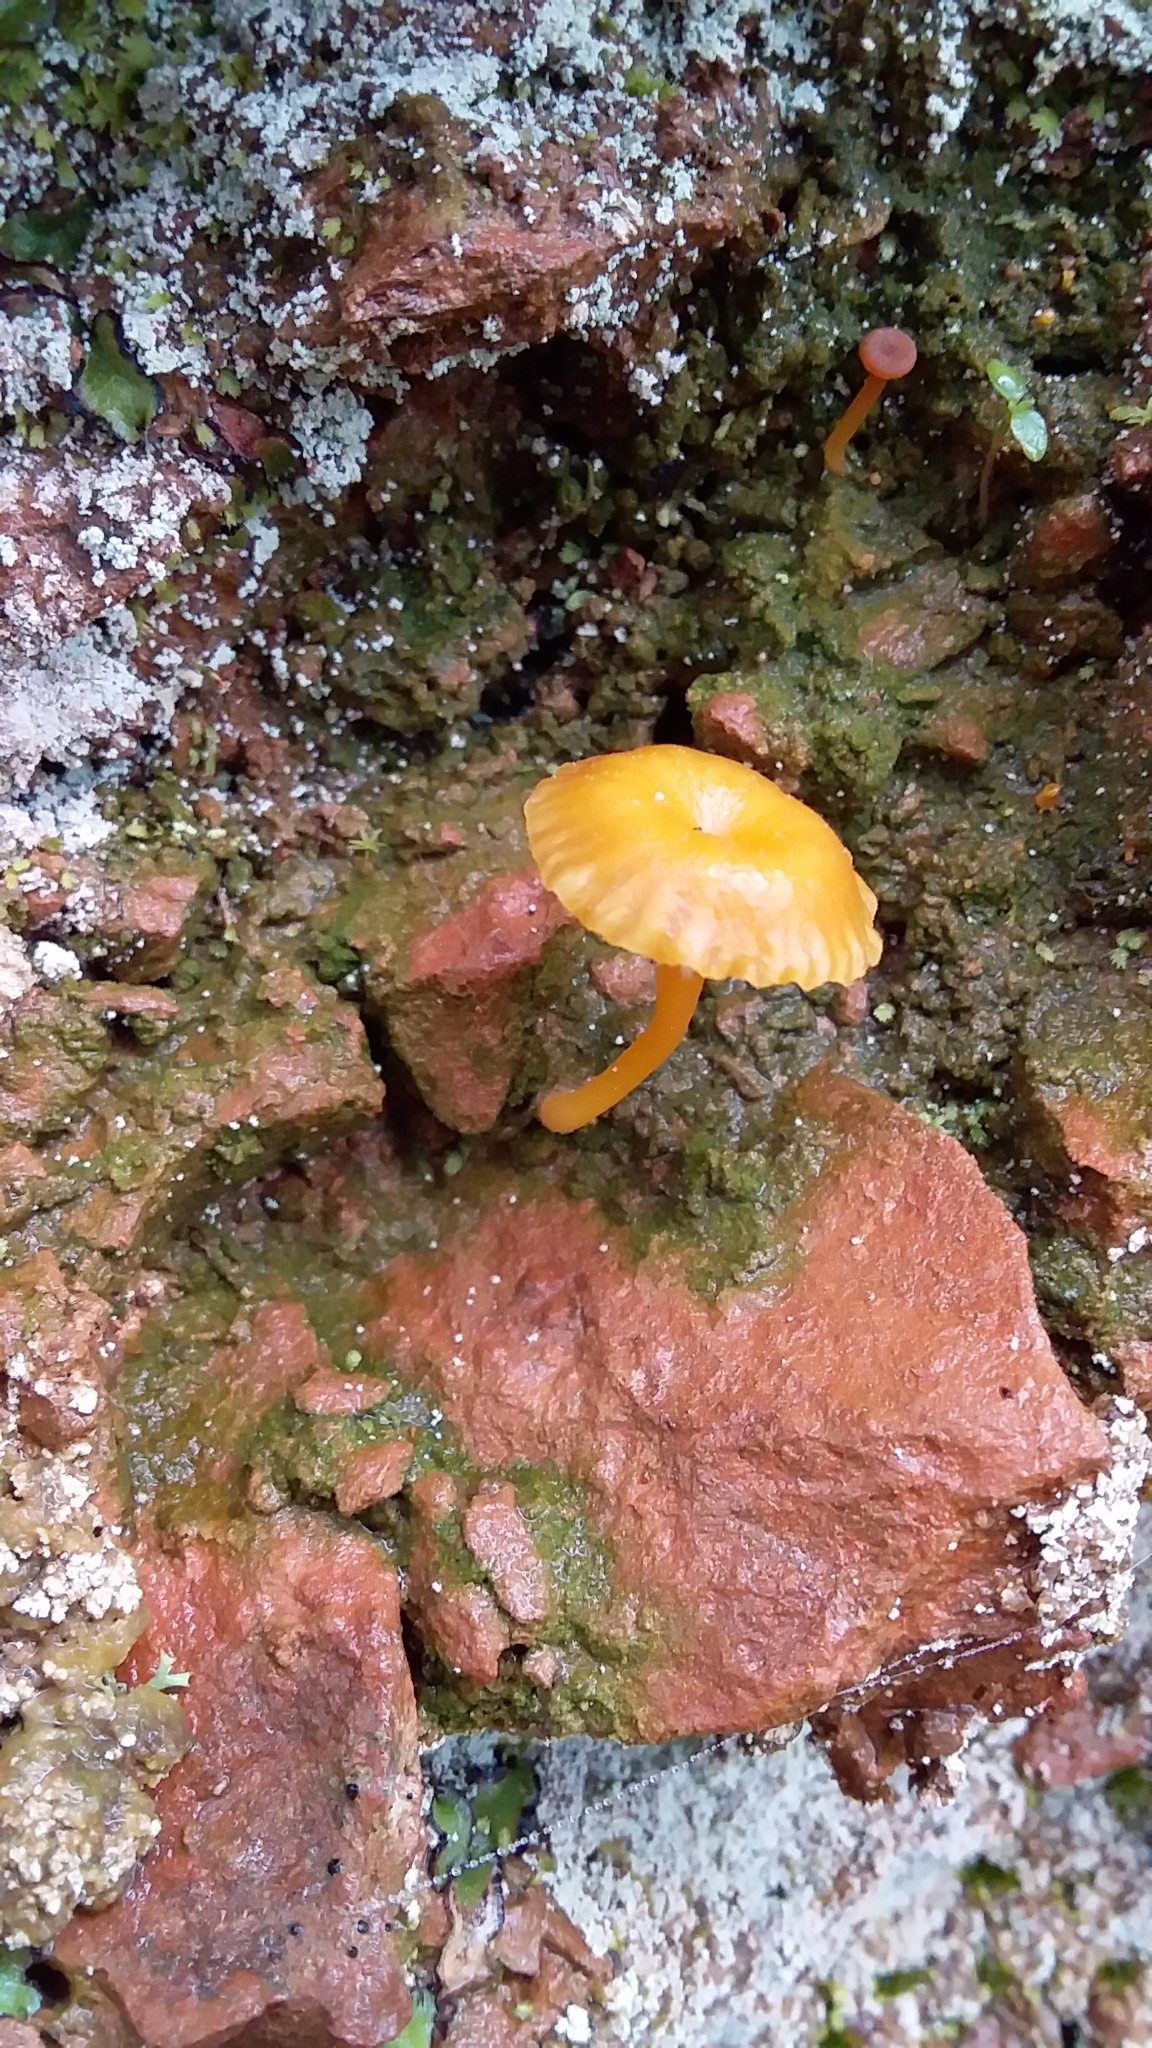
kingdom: Fungi
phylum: Basidiomycota
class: Agaricomycetes
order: Agaricales
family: Hygrophoraceae
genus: Lichenomphalia
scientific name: Lichenomphalia chromacea
